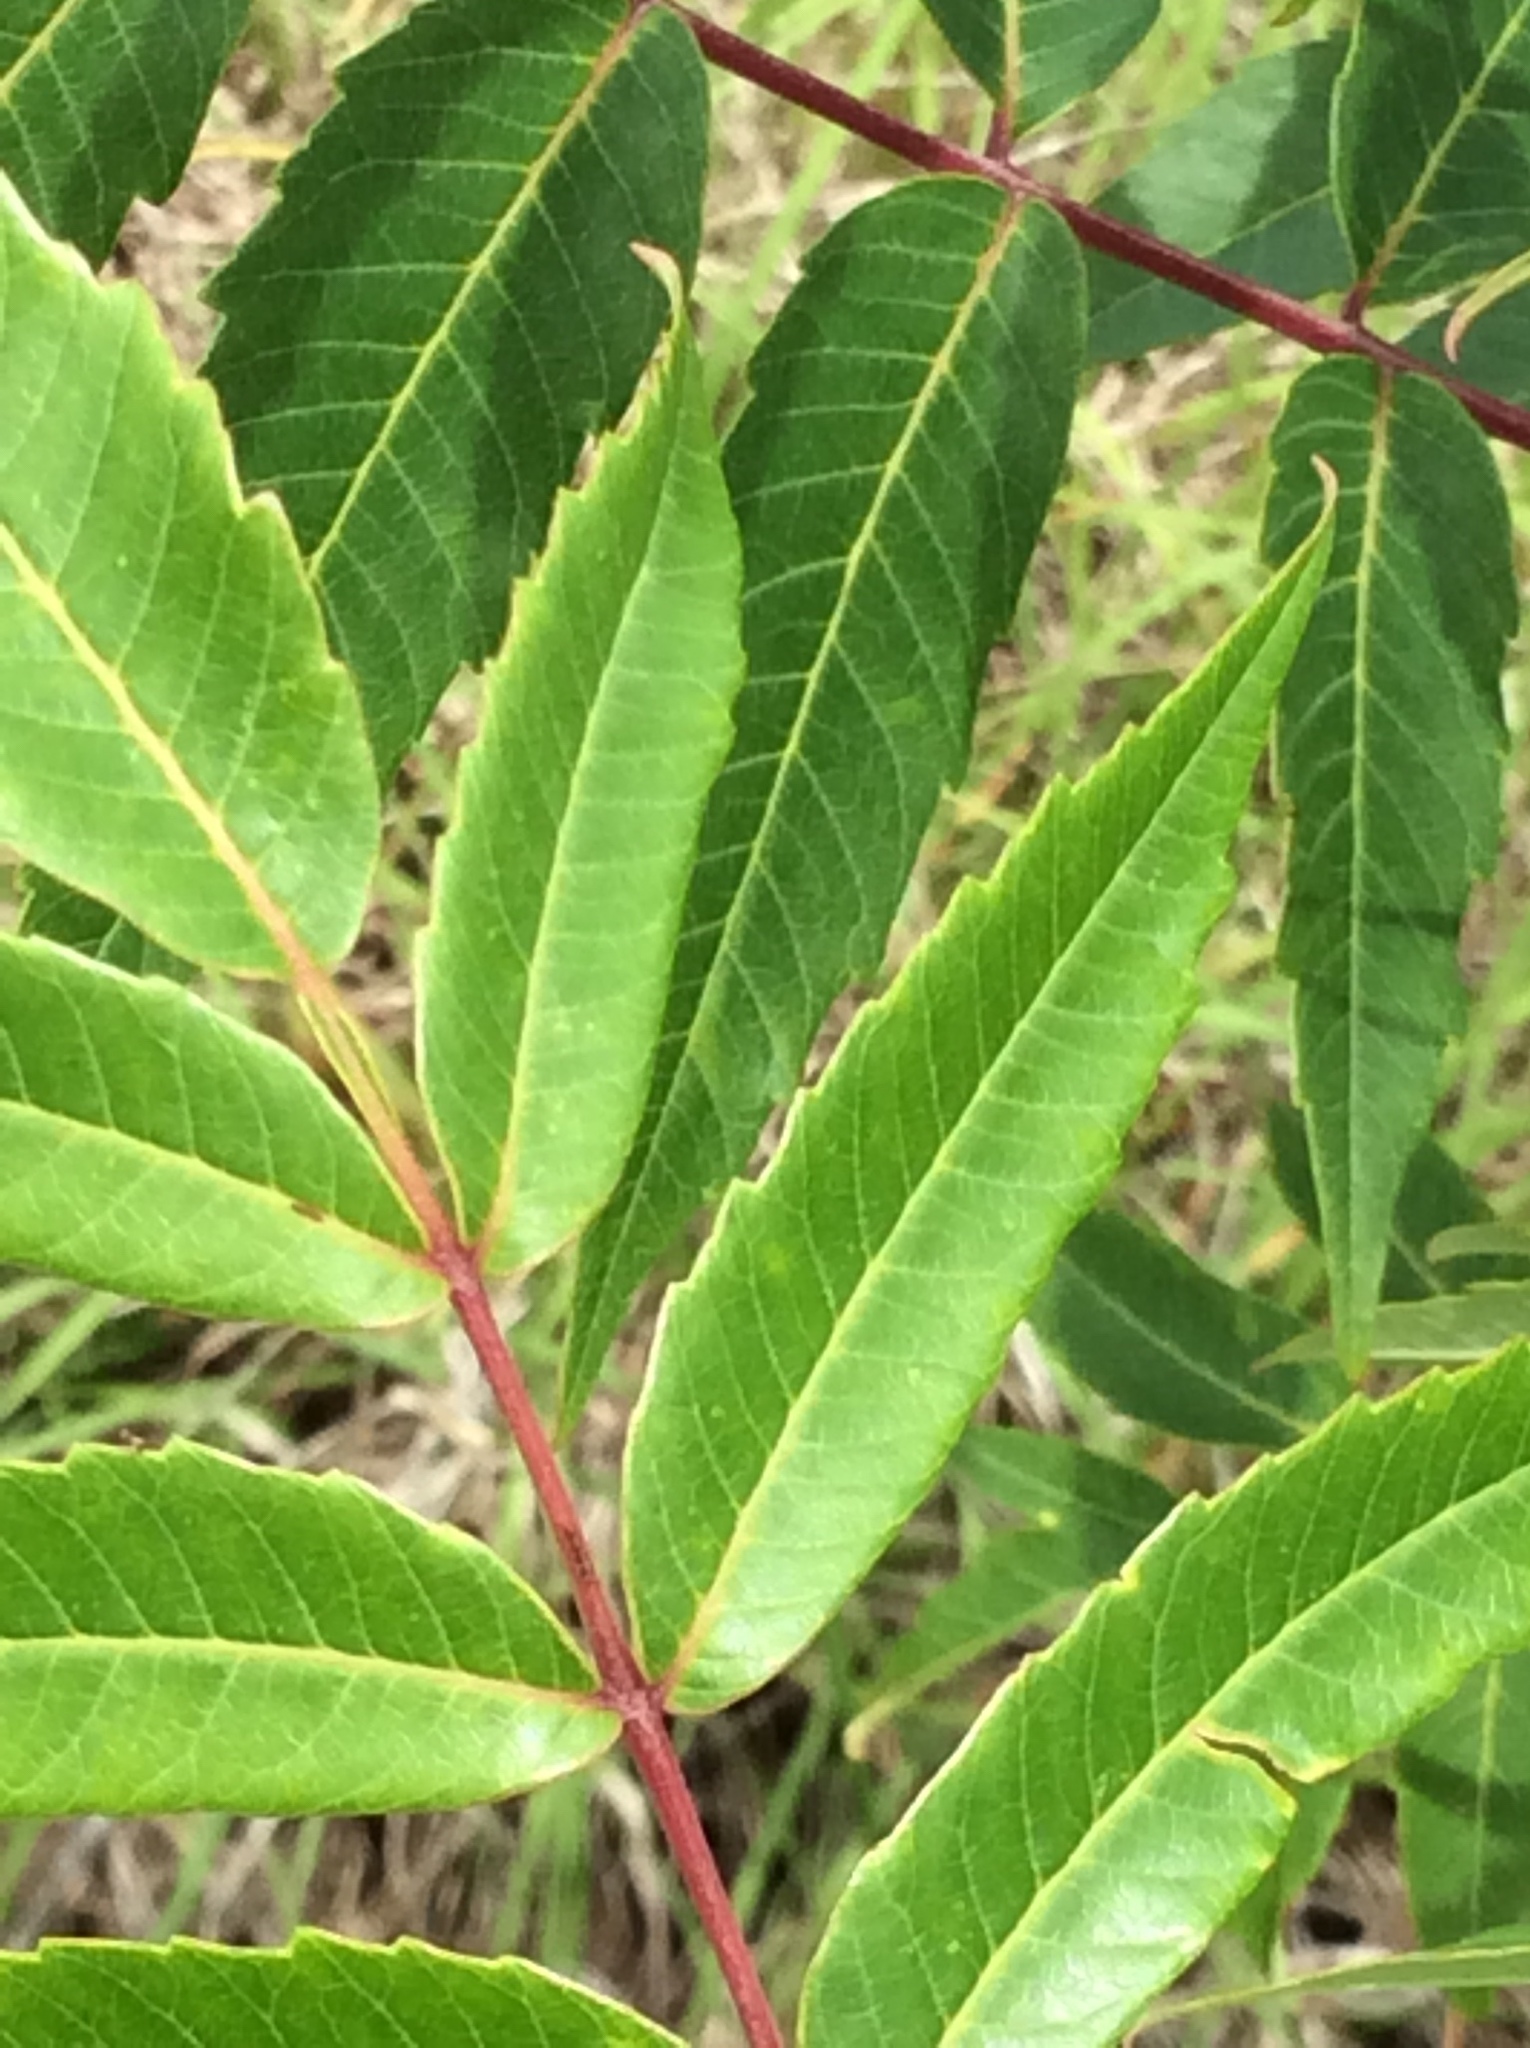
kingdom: Plantae
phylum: Tracheophyta
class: Magnoliopsida
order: Sapindales
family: Anacardiaceae
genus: Rhus
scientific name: Rhus glabra
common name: Scarlet sumac
